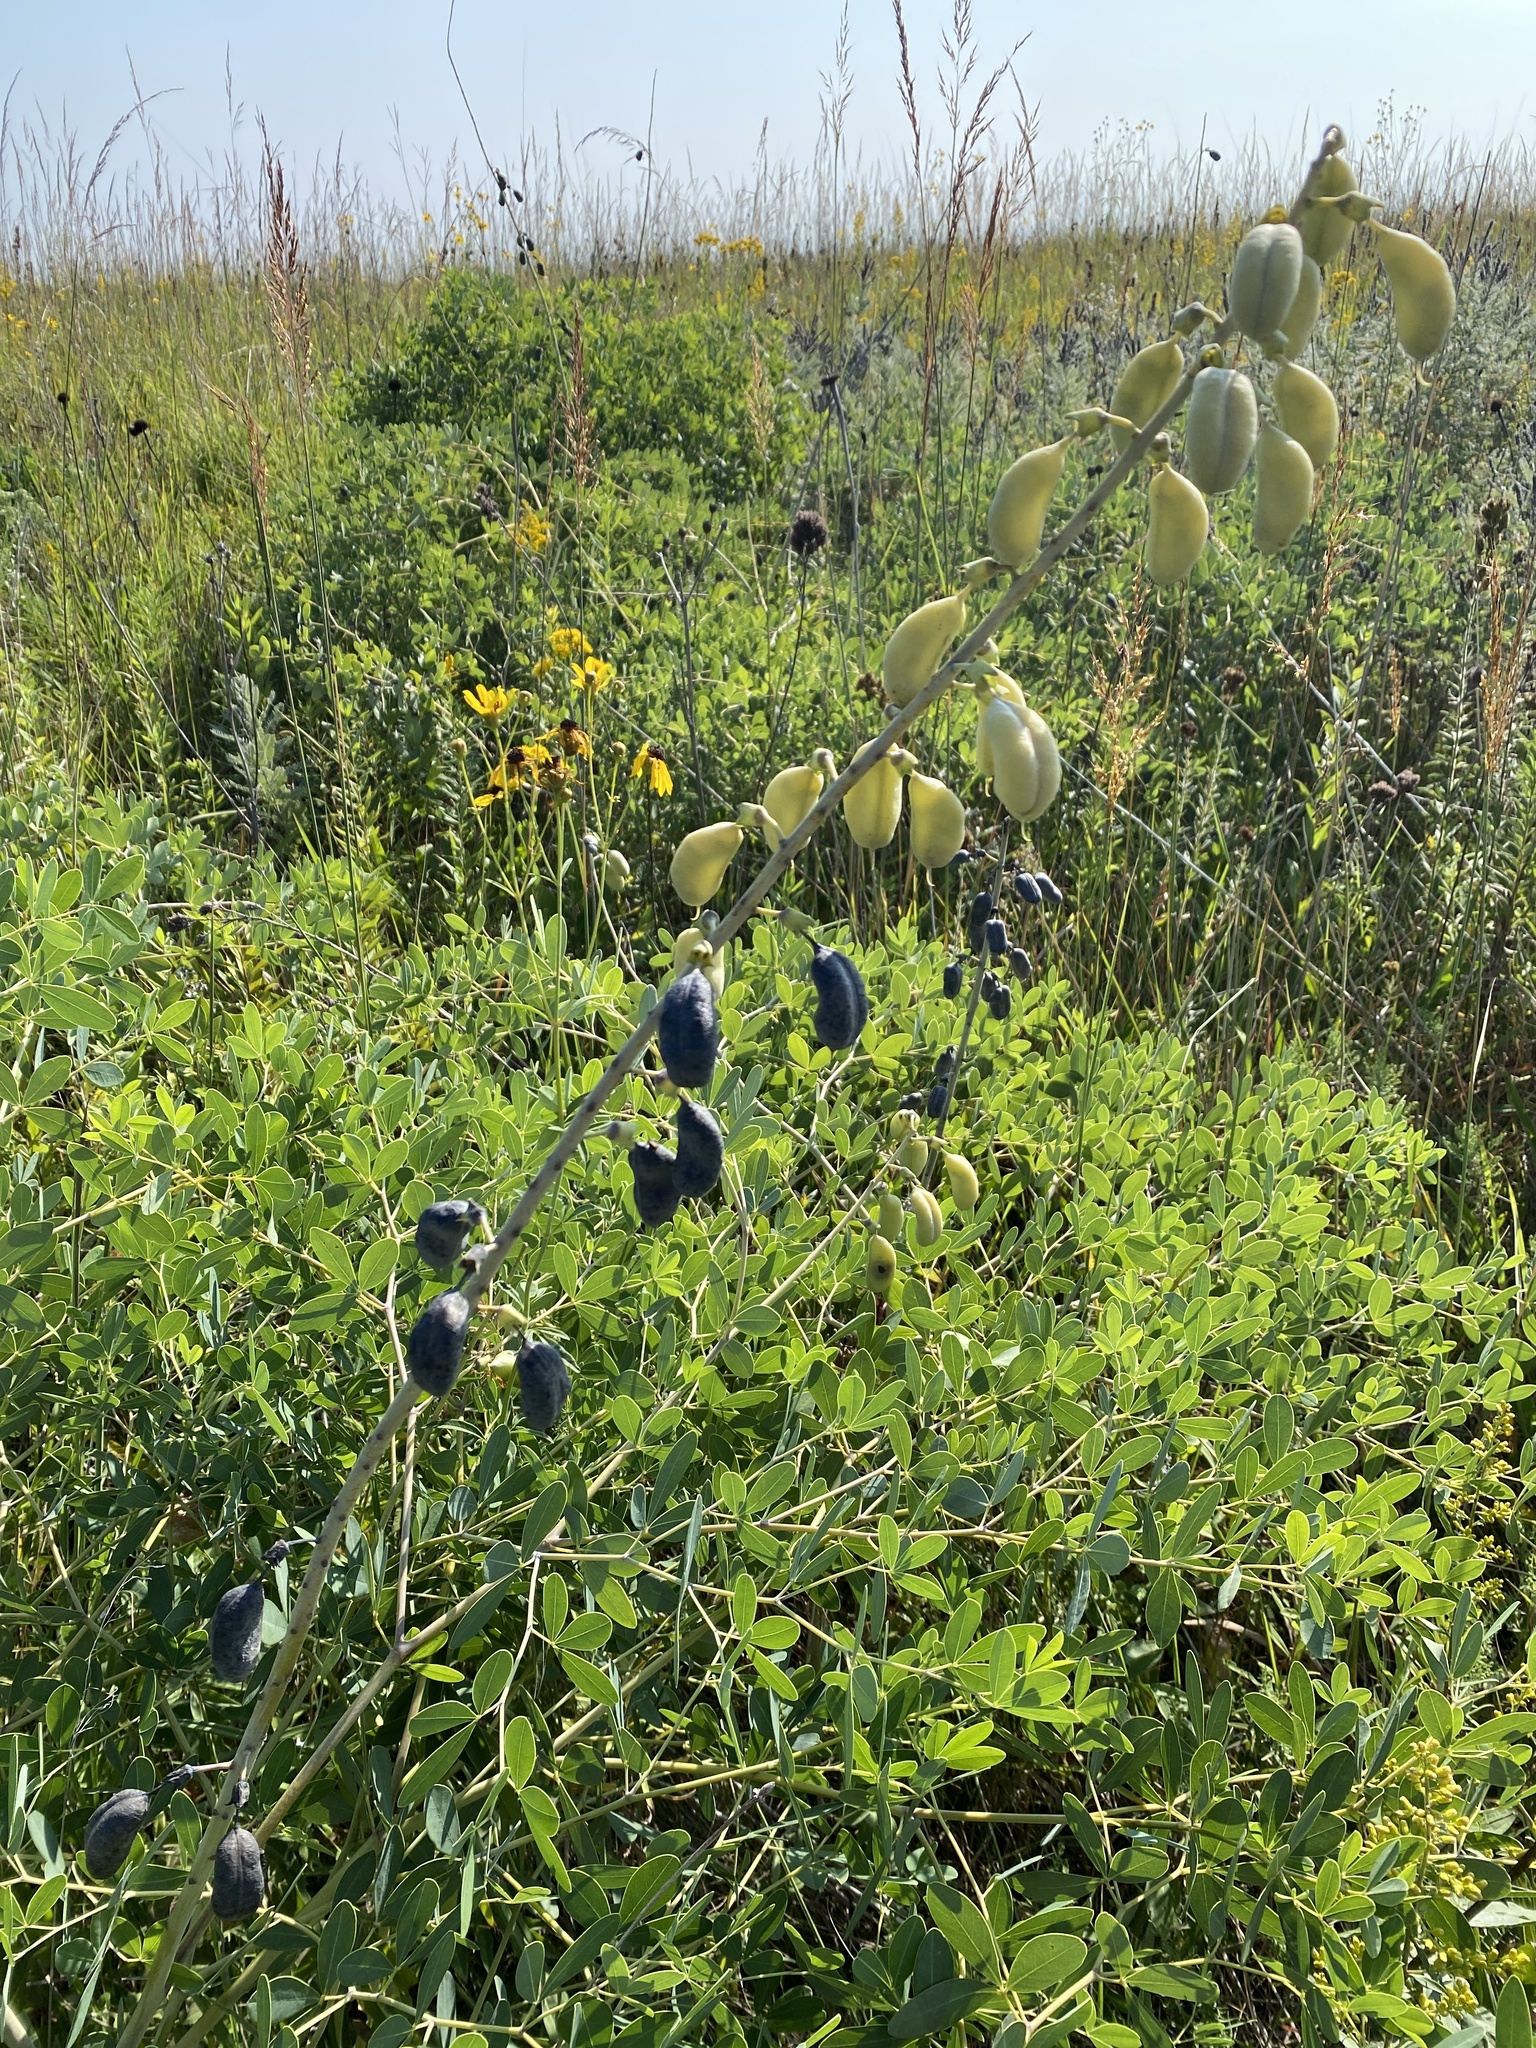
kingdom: Plantae
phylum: Tracheophyta
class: Magnoliopsida
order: Fabales
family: Fabaceae
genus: Baptisia
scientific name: Baptisia alba
